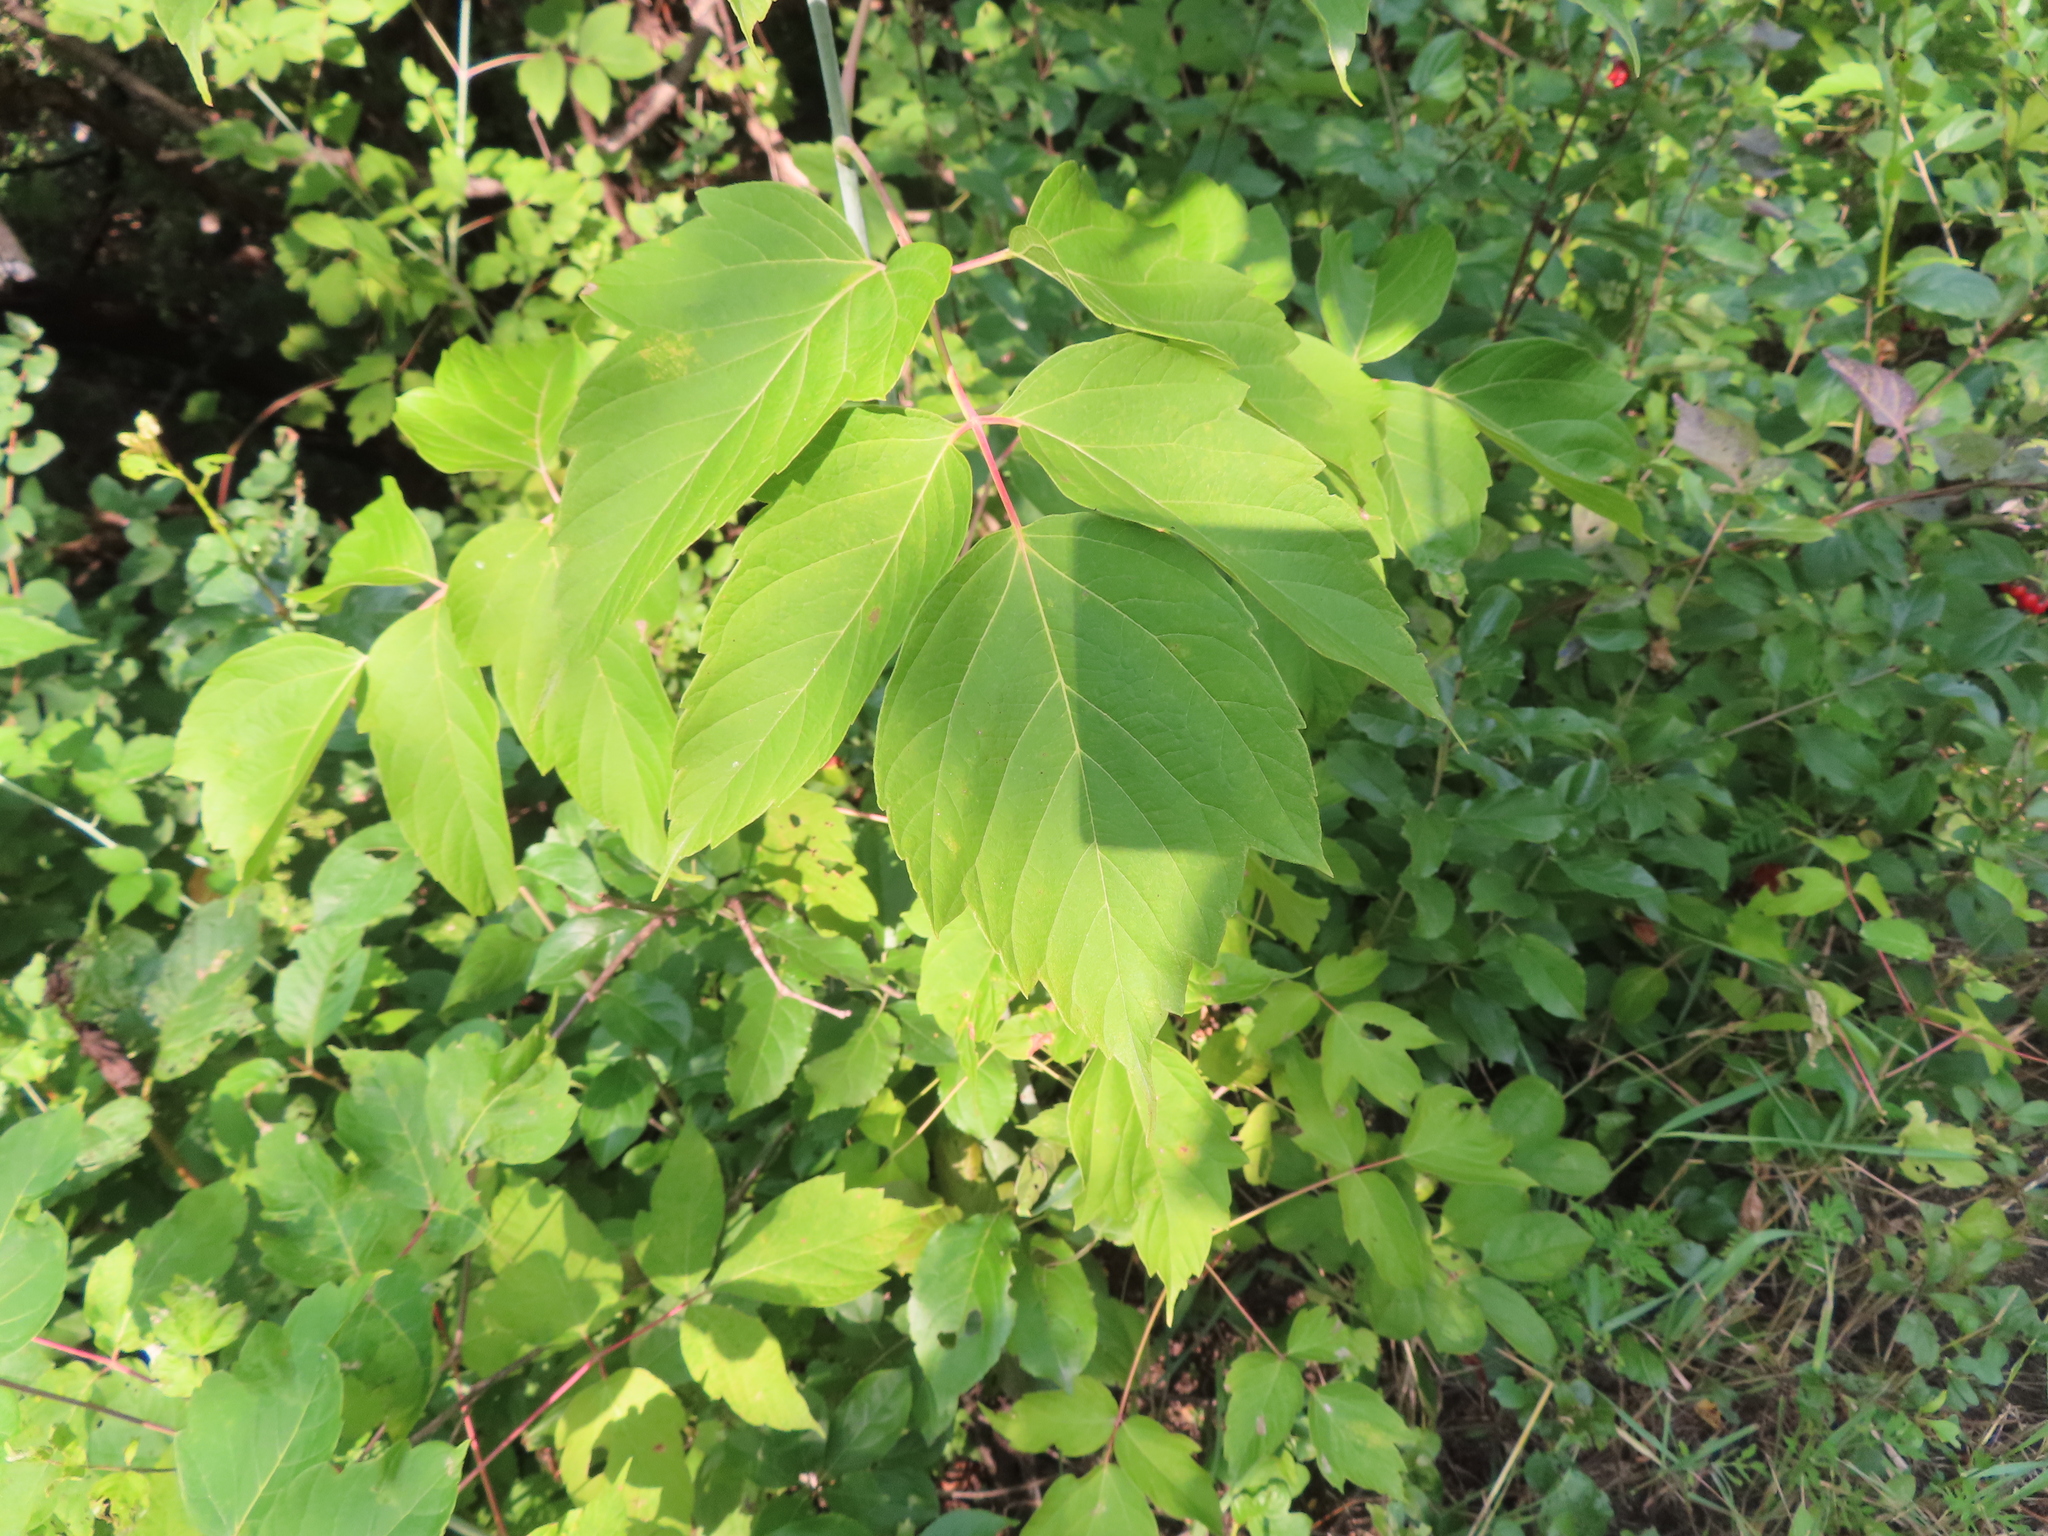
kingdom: Plantae
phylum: Tracheophyta
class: Magnoliopsida
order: Sapindales
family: Sapindaceae
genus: Acer
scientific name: Acer negundo
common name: Ashleaf maple
